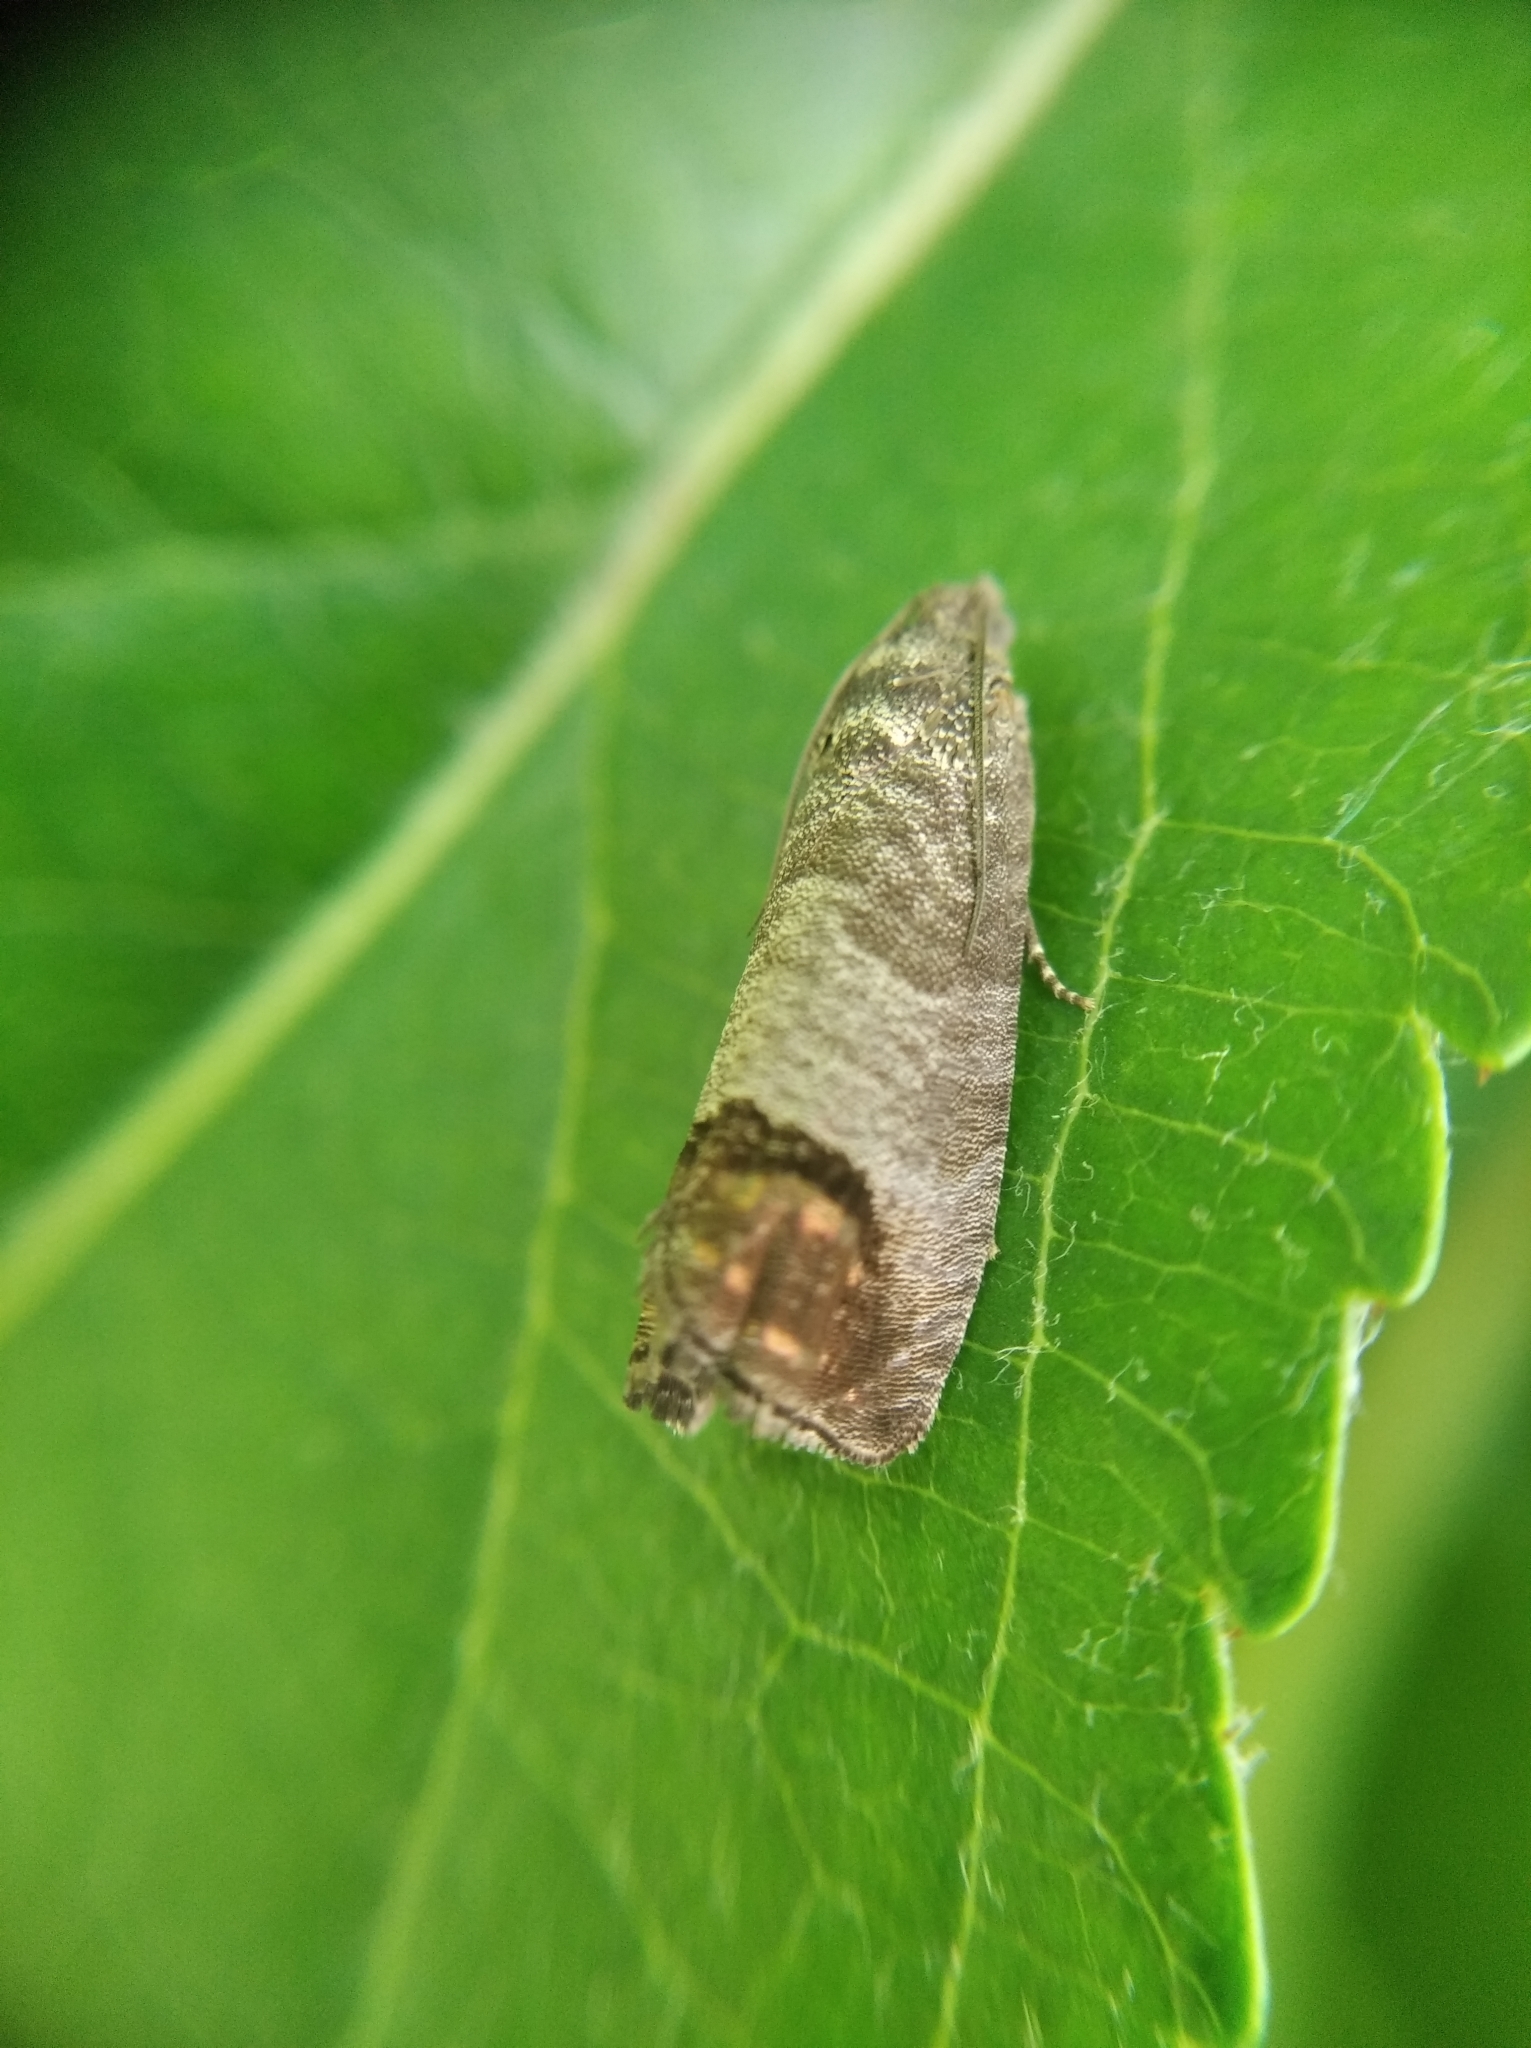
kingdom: Animalia
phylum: Arthropoda
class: Insecta
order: Lepidoptera
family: Tortricidae
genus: Cydia
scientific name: Cydia pomonella
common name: Codling moth
